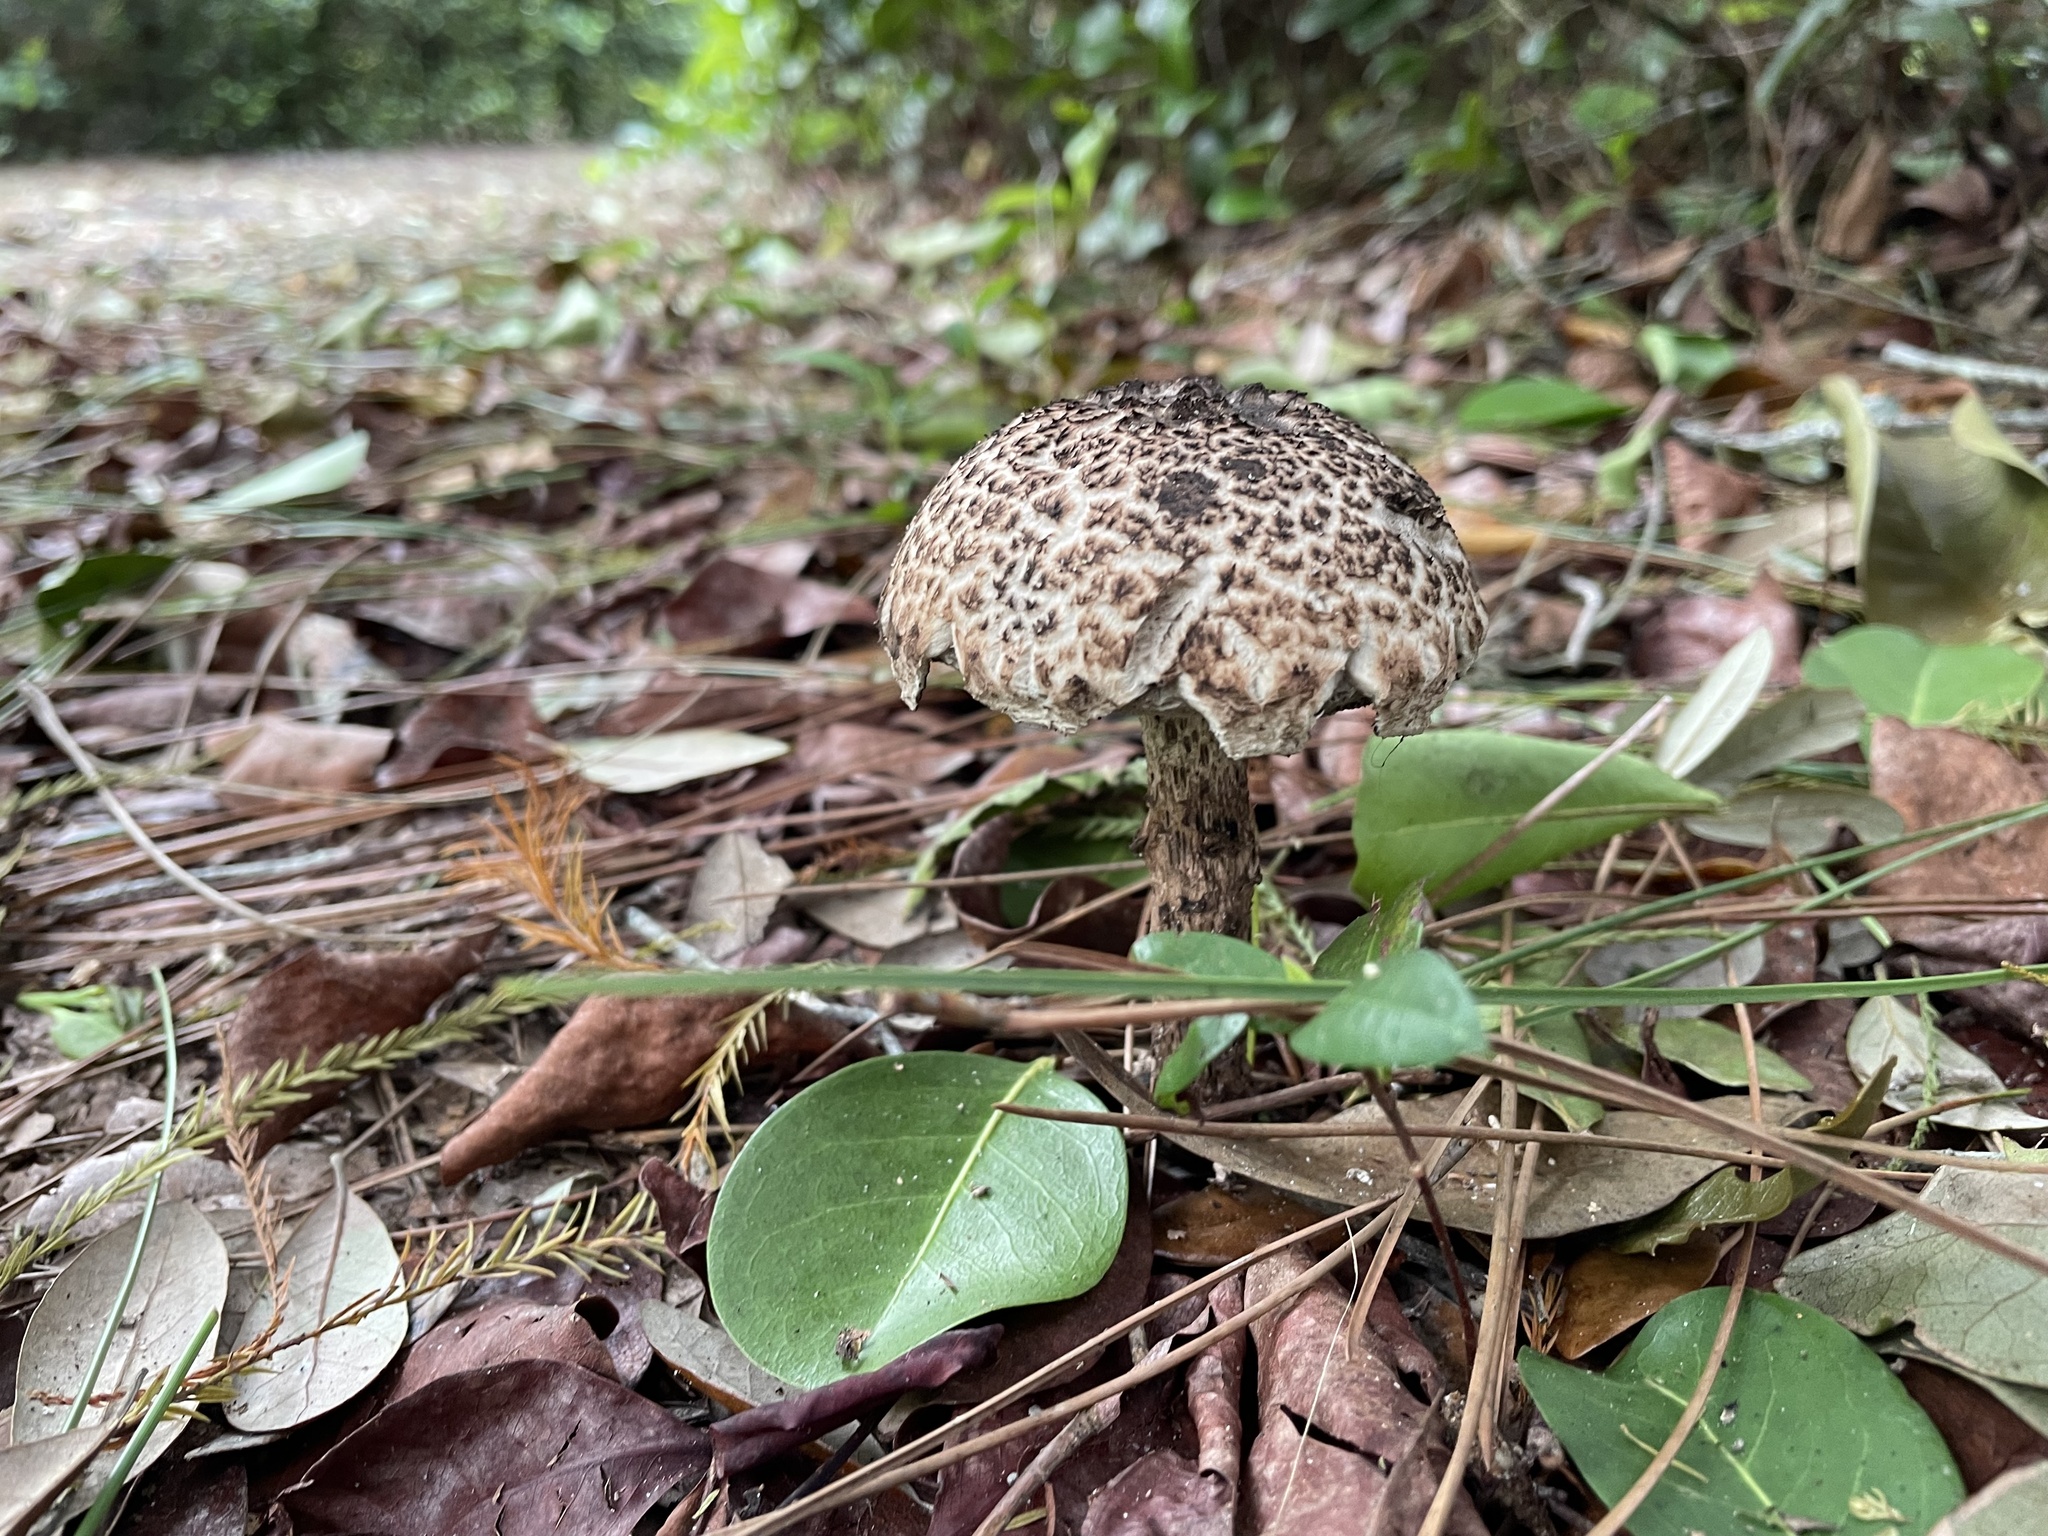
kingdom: Fungi
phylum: Basidiomycota
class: Agaricomycetes
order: Boletales
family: Boletaceae
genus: Strobilomyces
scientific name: Strobilomyces strobilaceus
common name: Old man of the woods
